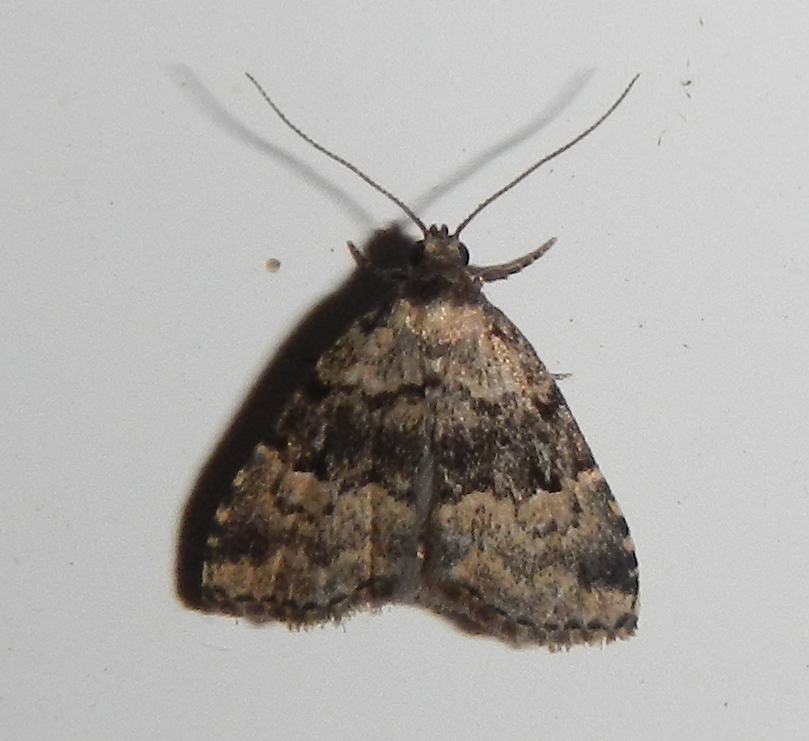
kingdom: Animalia
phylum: Arthropoda
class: Insecta
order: Lepidoptera
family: Erebidae
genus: Dyspyralis
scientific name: Dyspyralis illocata
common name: Visitation moth
